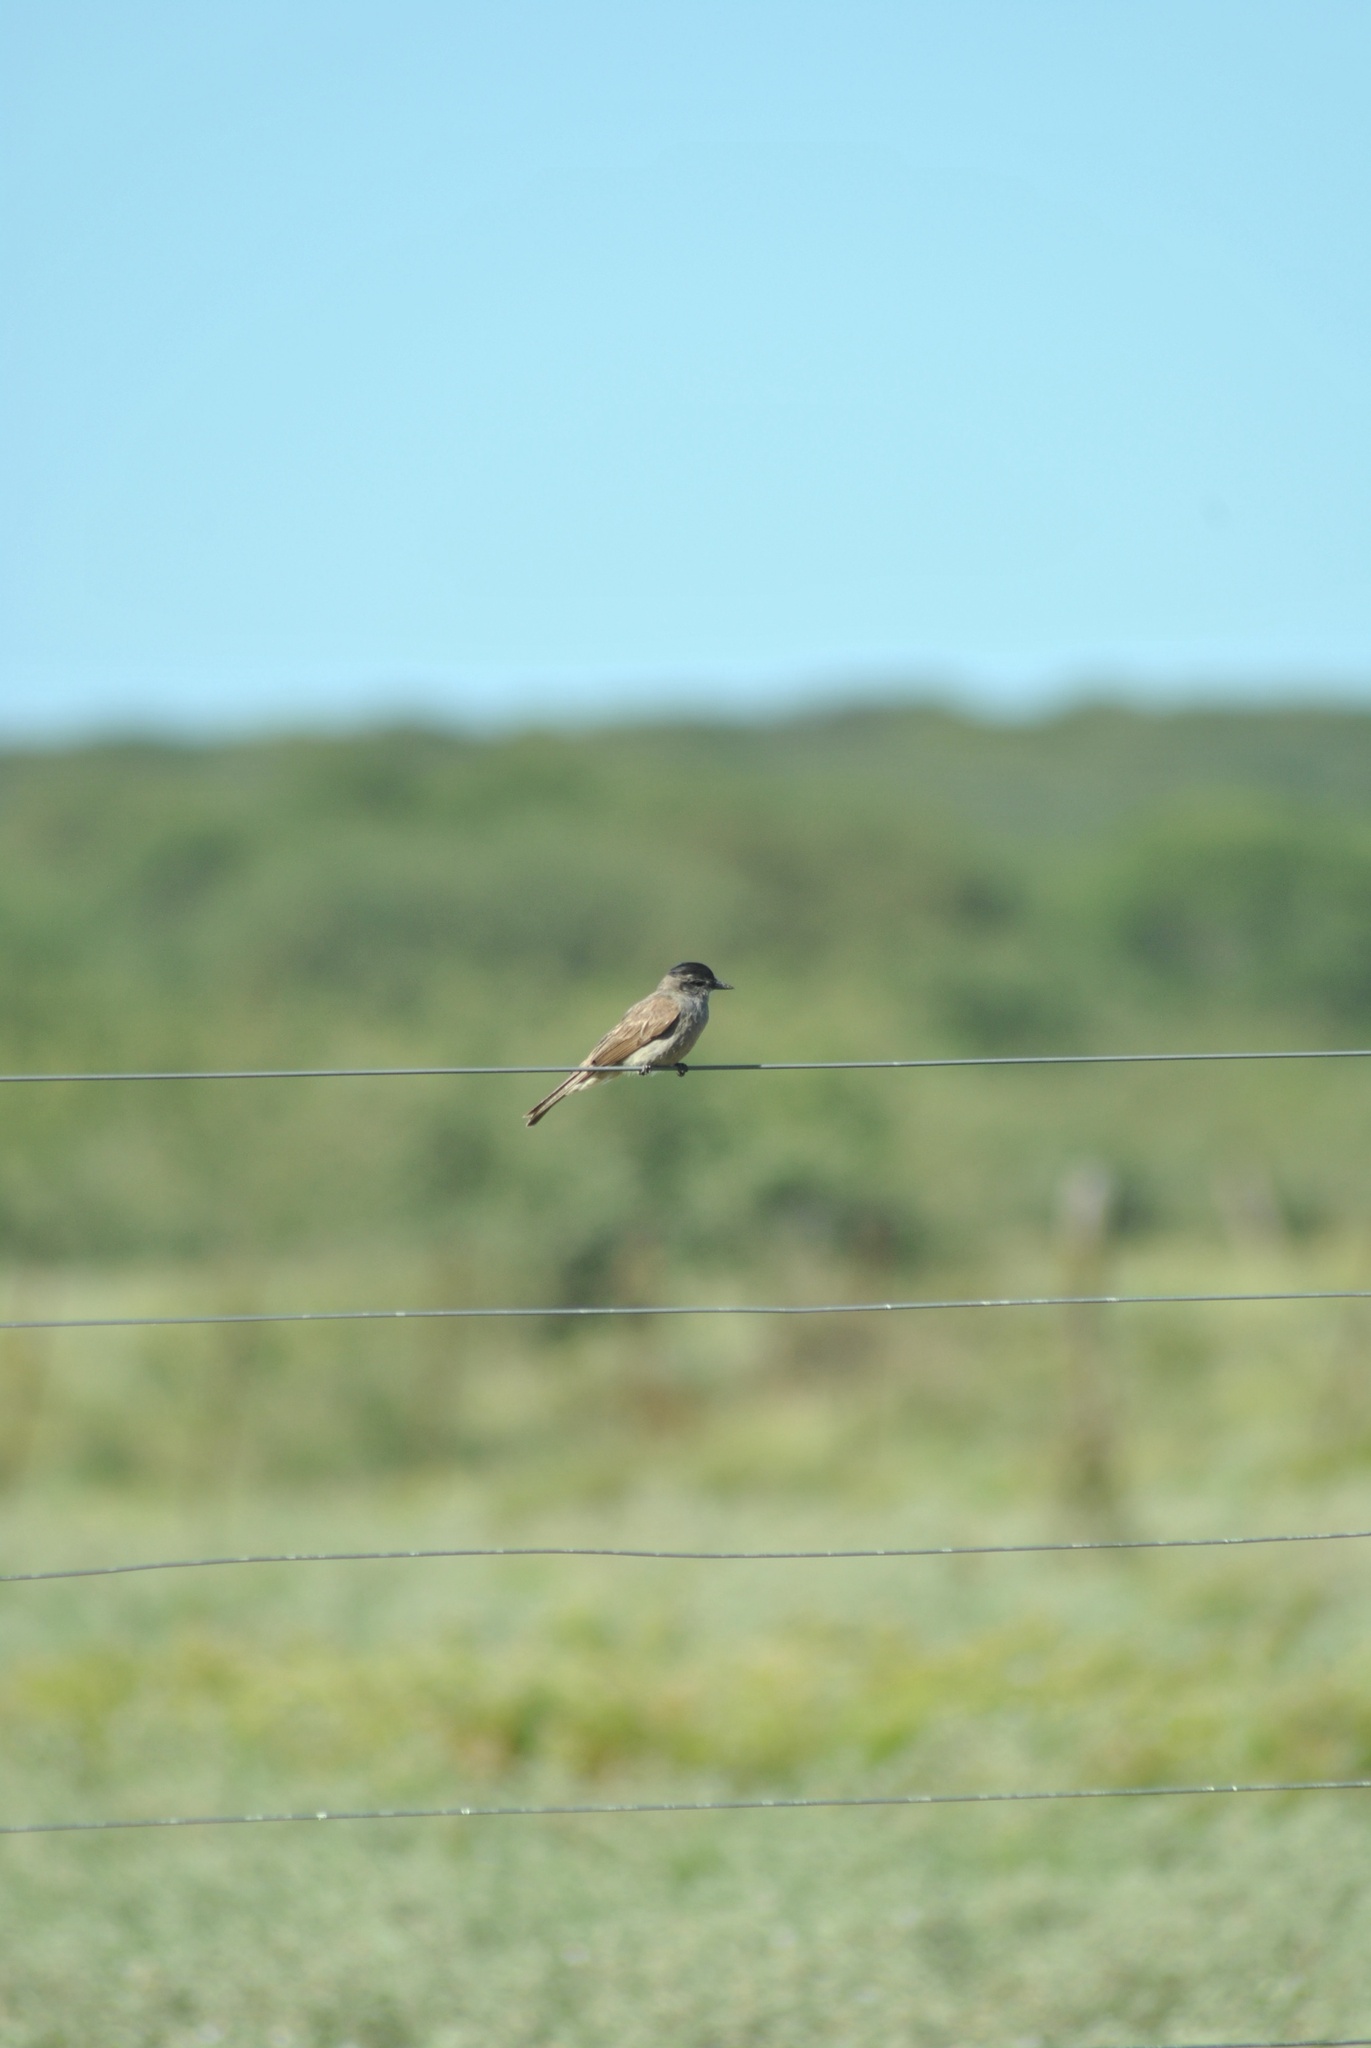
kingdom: Animalia
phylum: Chordata
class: Aves
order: Passeriformes
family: Tyrannidae
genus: Empidonomus
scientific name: Empidonomus aurantioatrocristatus
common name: Crowned slaty flycatcher
